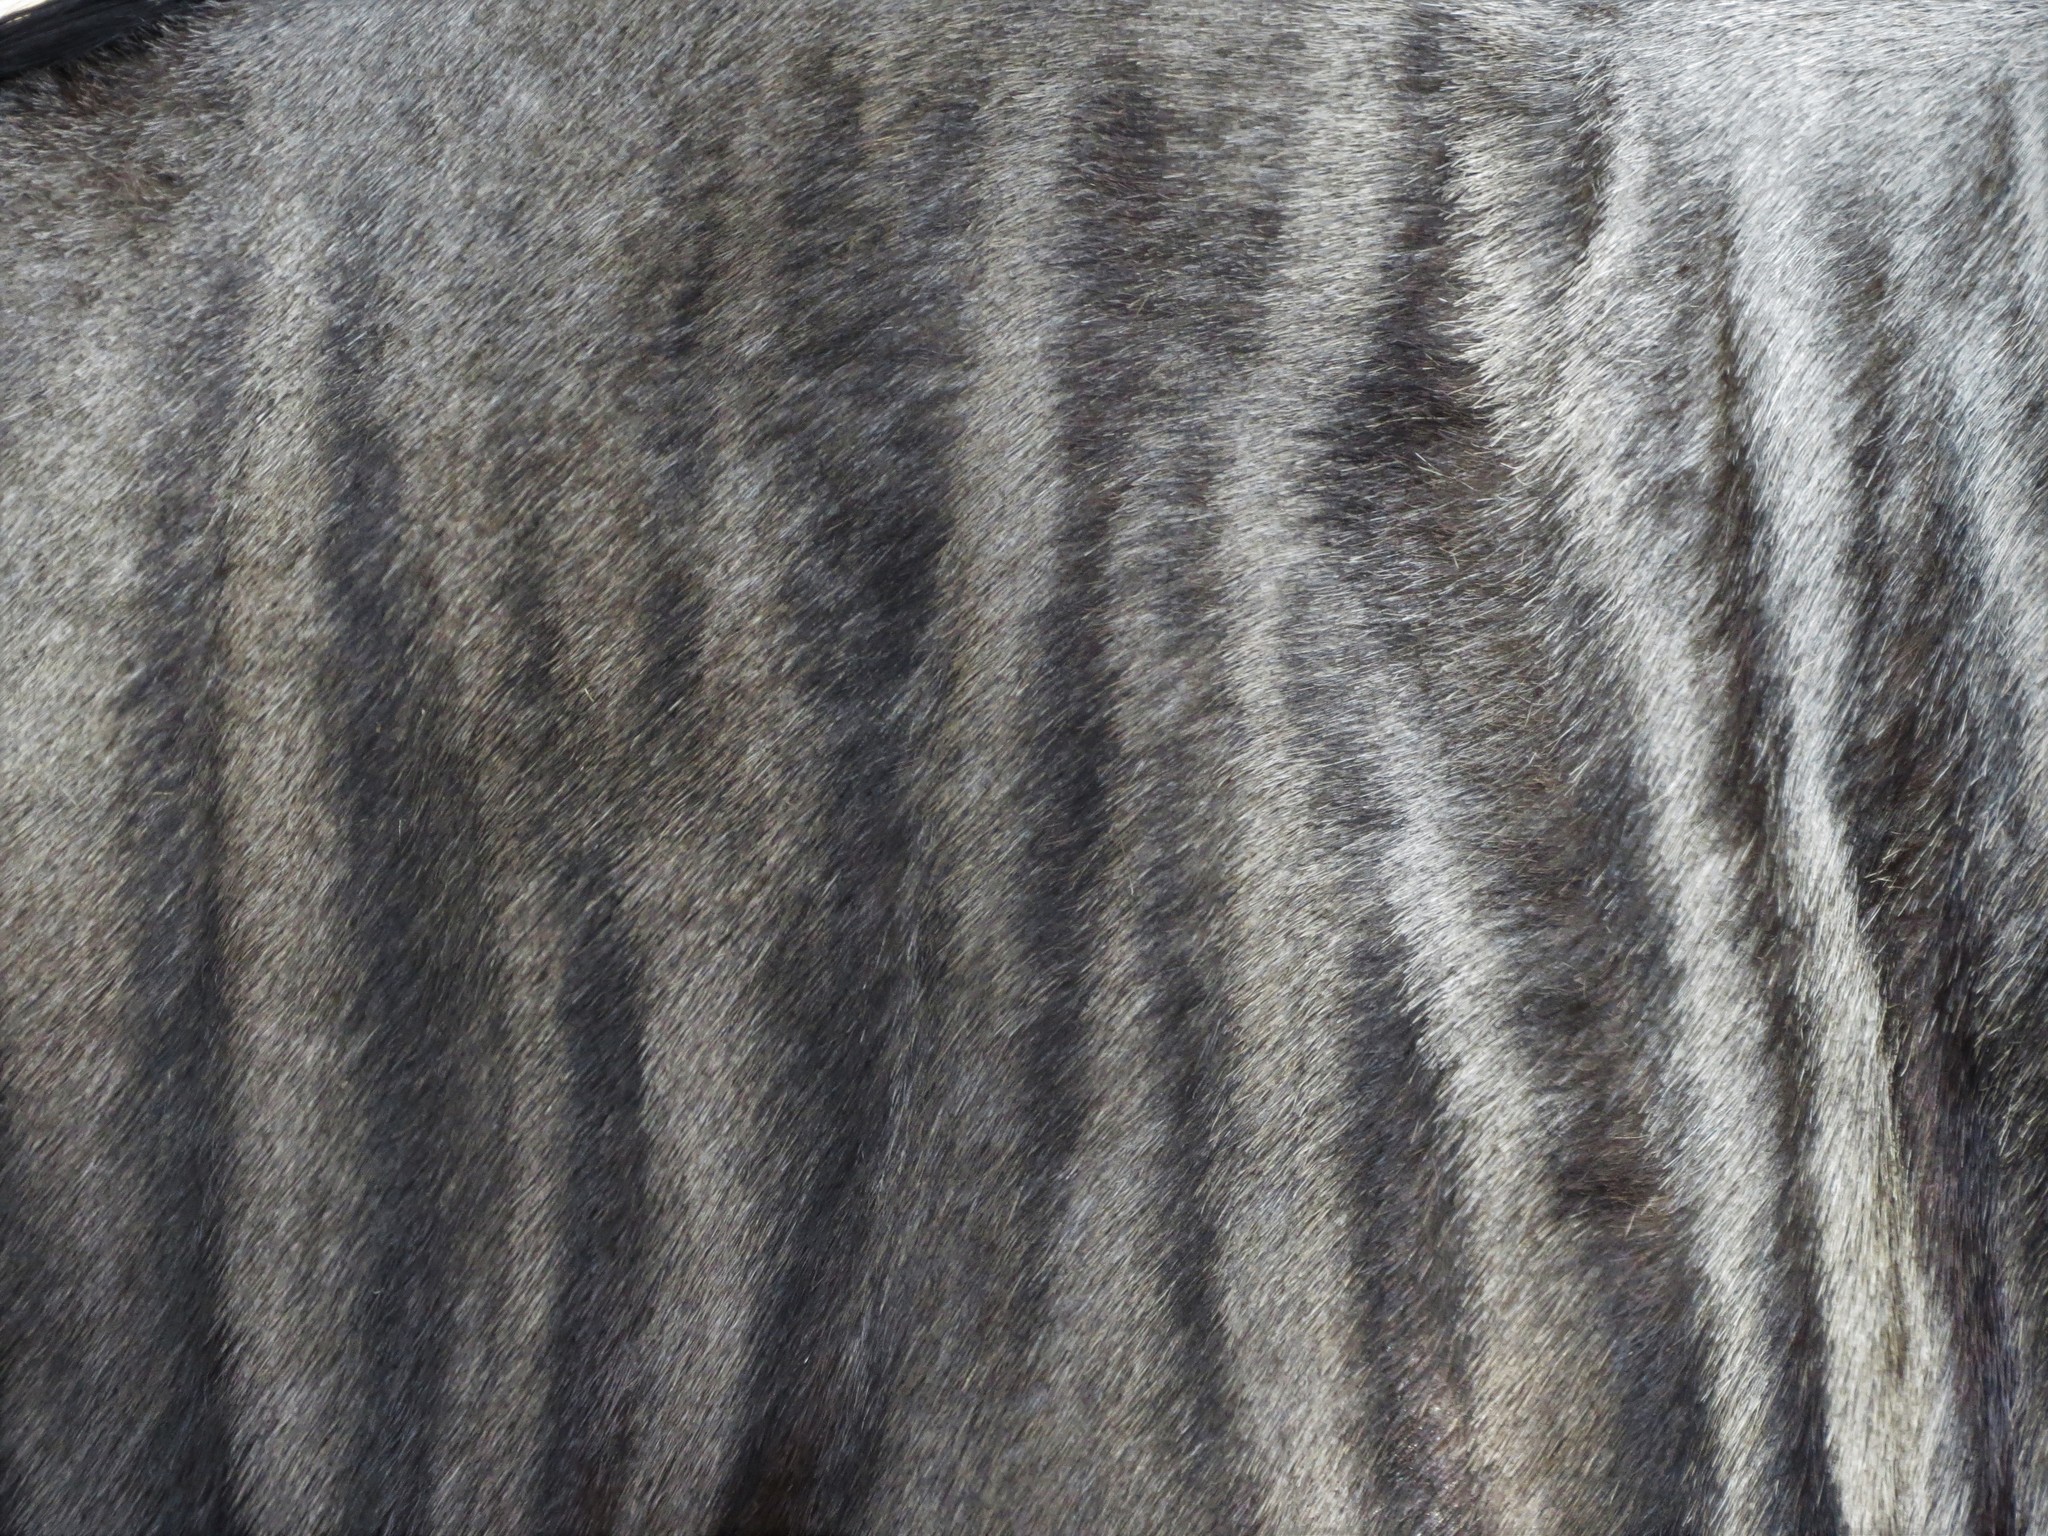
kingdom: Animalia
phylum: Chordata
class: Mammalia
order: Artiodactyla
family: Bovidae
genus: Connochaetes
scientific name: Connochaetes taurinus
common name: Blue wildebeest
